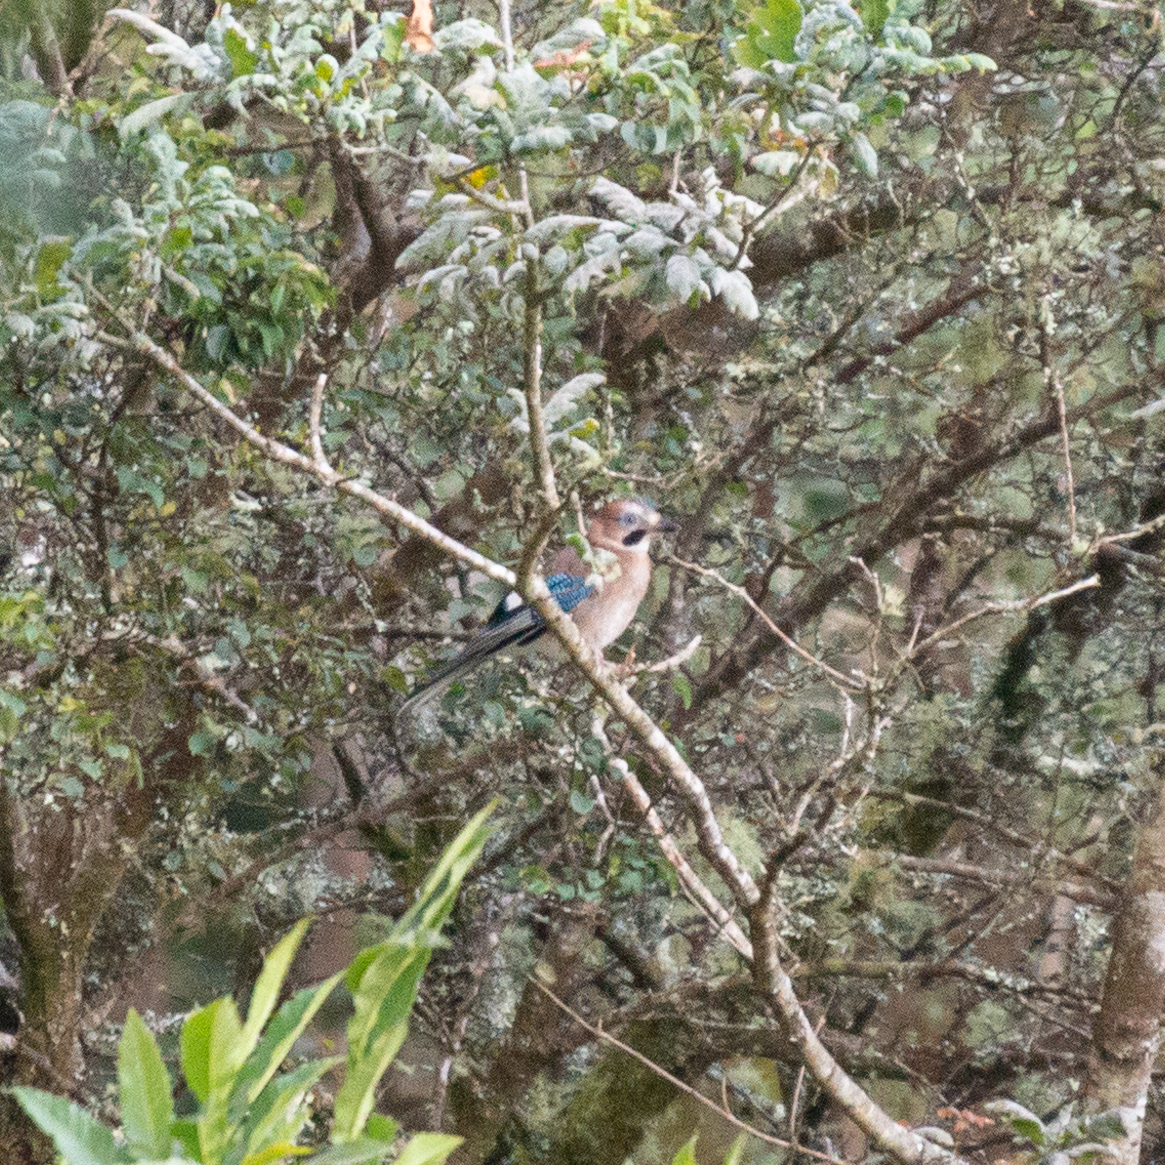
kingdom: Animalia
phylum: Chordata
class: Aves
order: Passeriformes
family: Corvidae
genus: Garrulus
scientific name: Garrulus glandarius
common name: Eurasian jay
